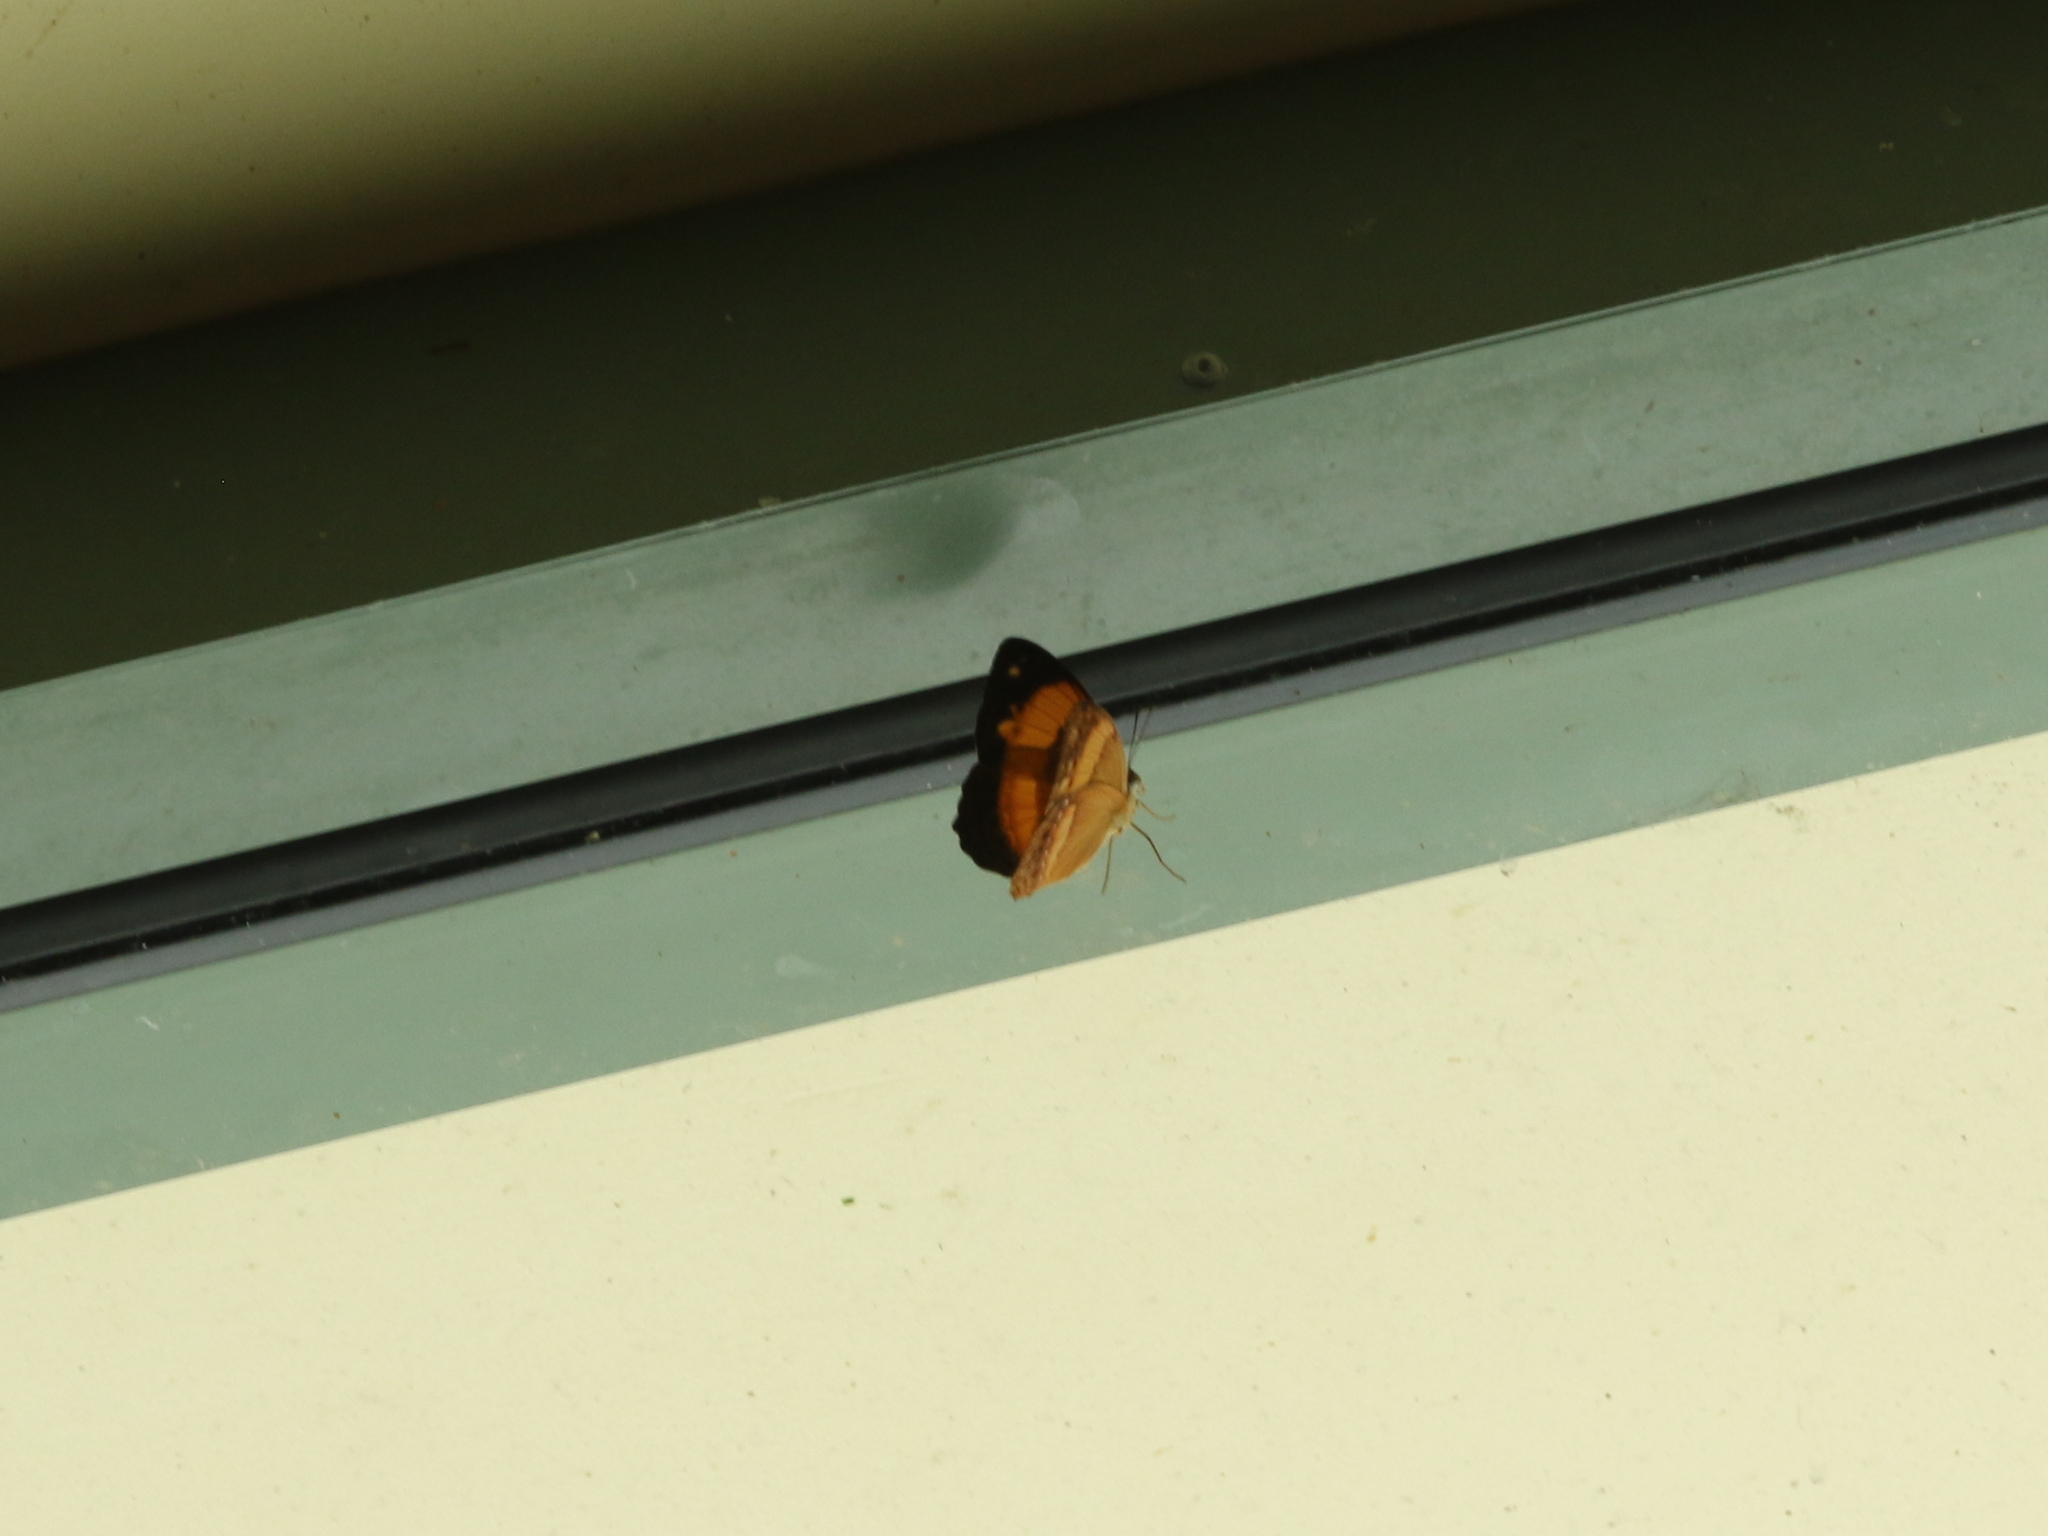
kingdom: Animalia
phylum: Arthropoda
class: Insecta
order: Lepidoptera
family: Nymphalidae
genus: Cupha
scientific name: Cupha prosope
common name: Bordered rustic
